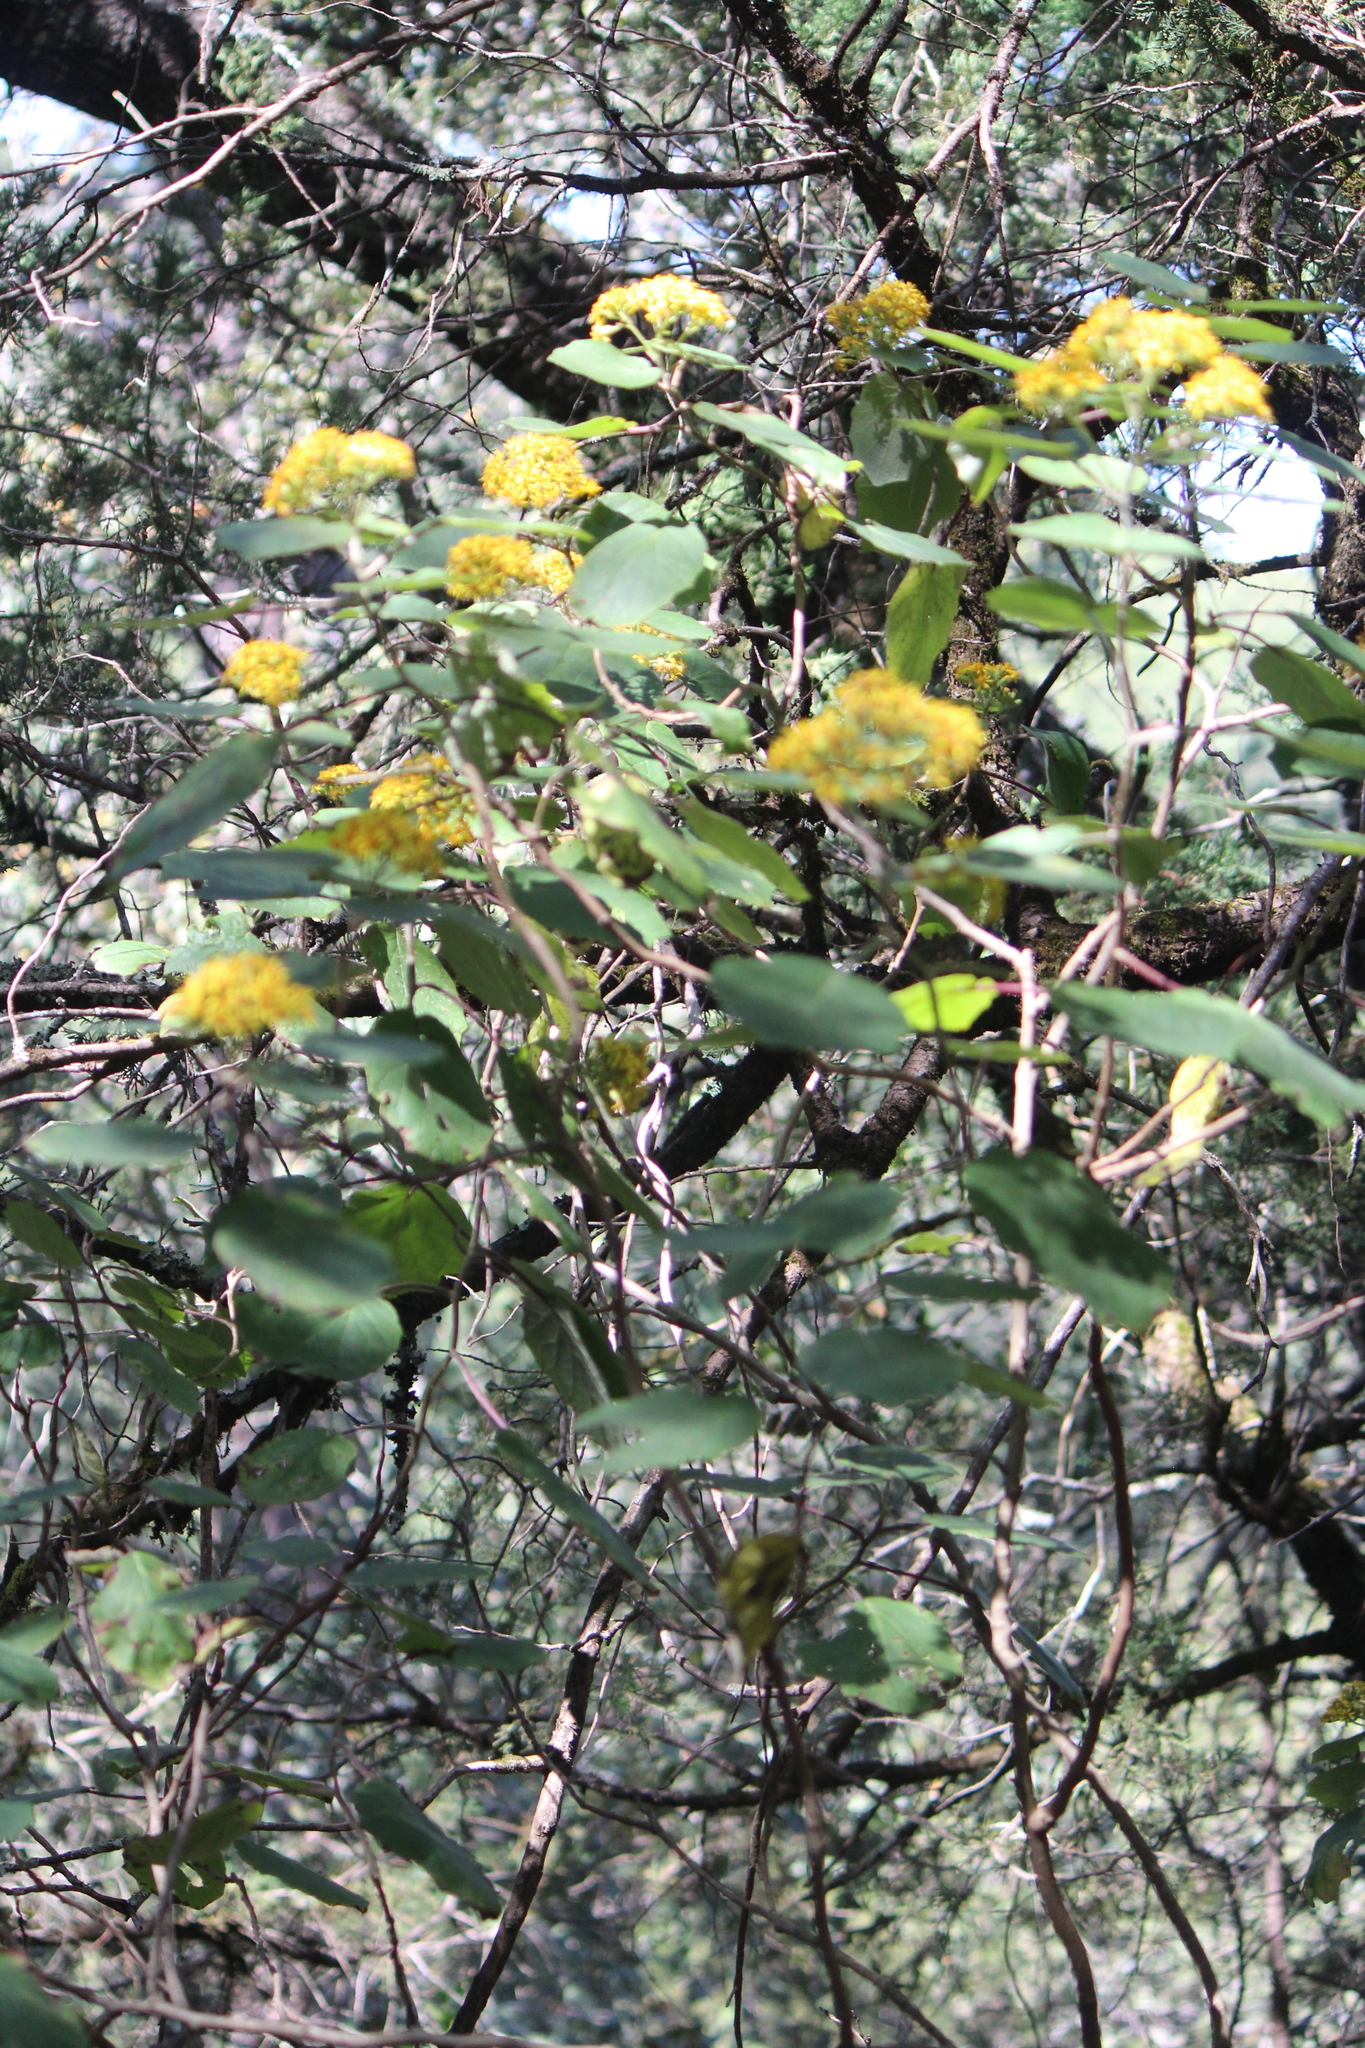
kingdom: Plantae
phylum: Tracheophyta
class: Magnoliopsida
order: Asterales
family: Asteraceae
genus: Roldana
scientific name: Roldana petasitis
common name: California-geranium
